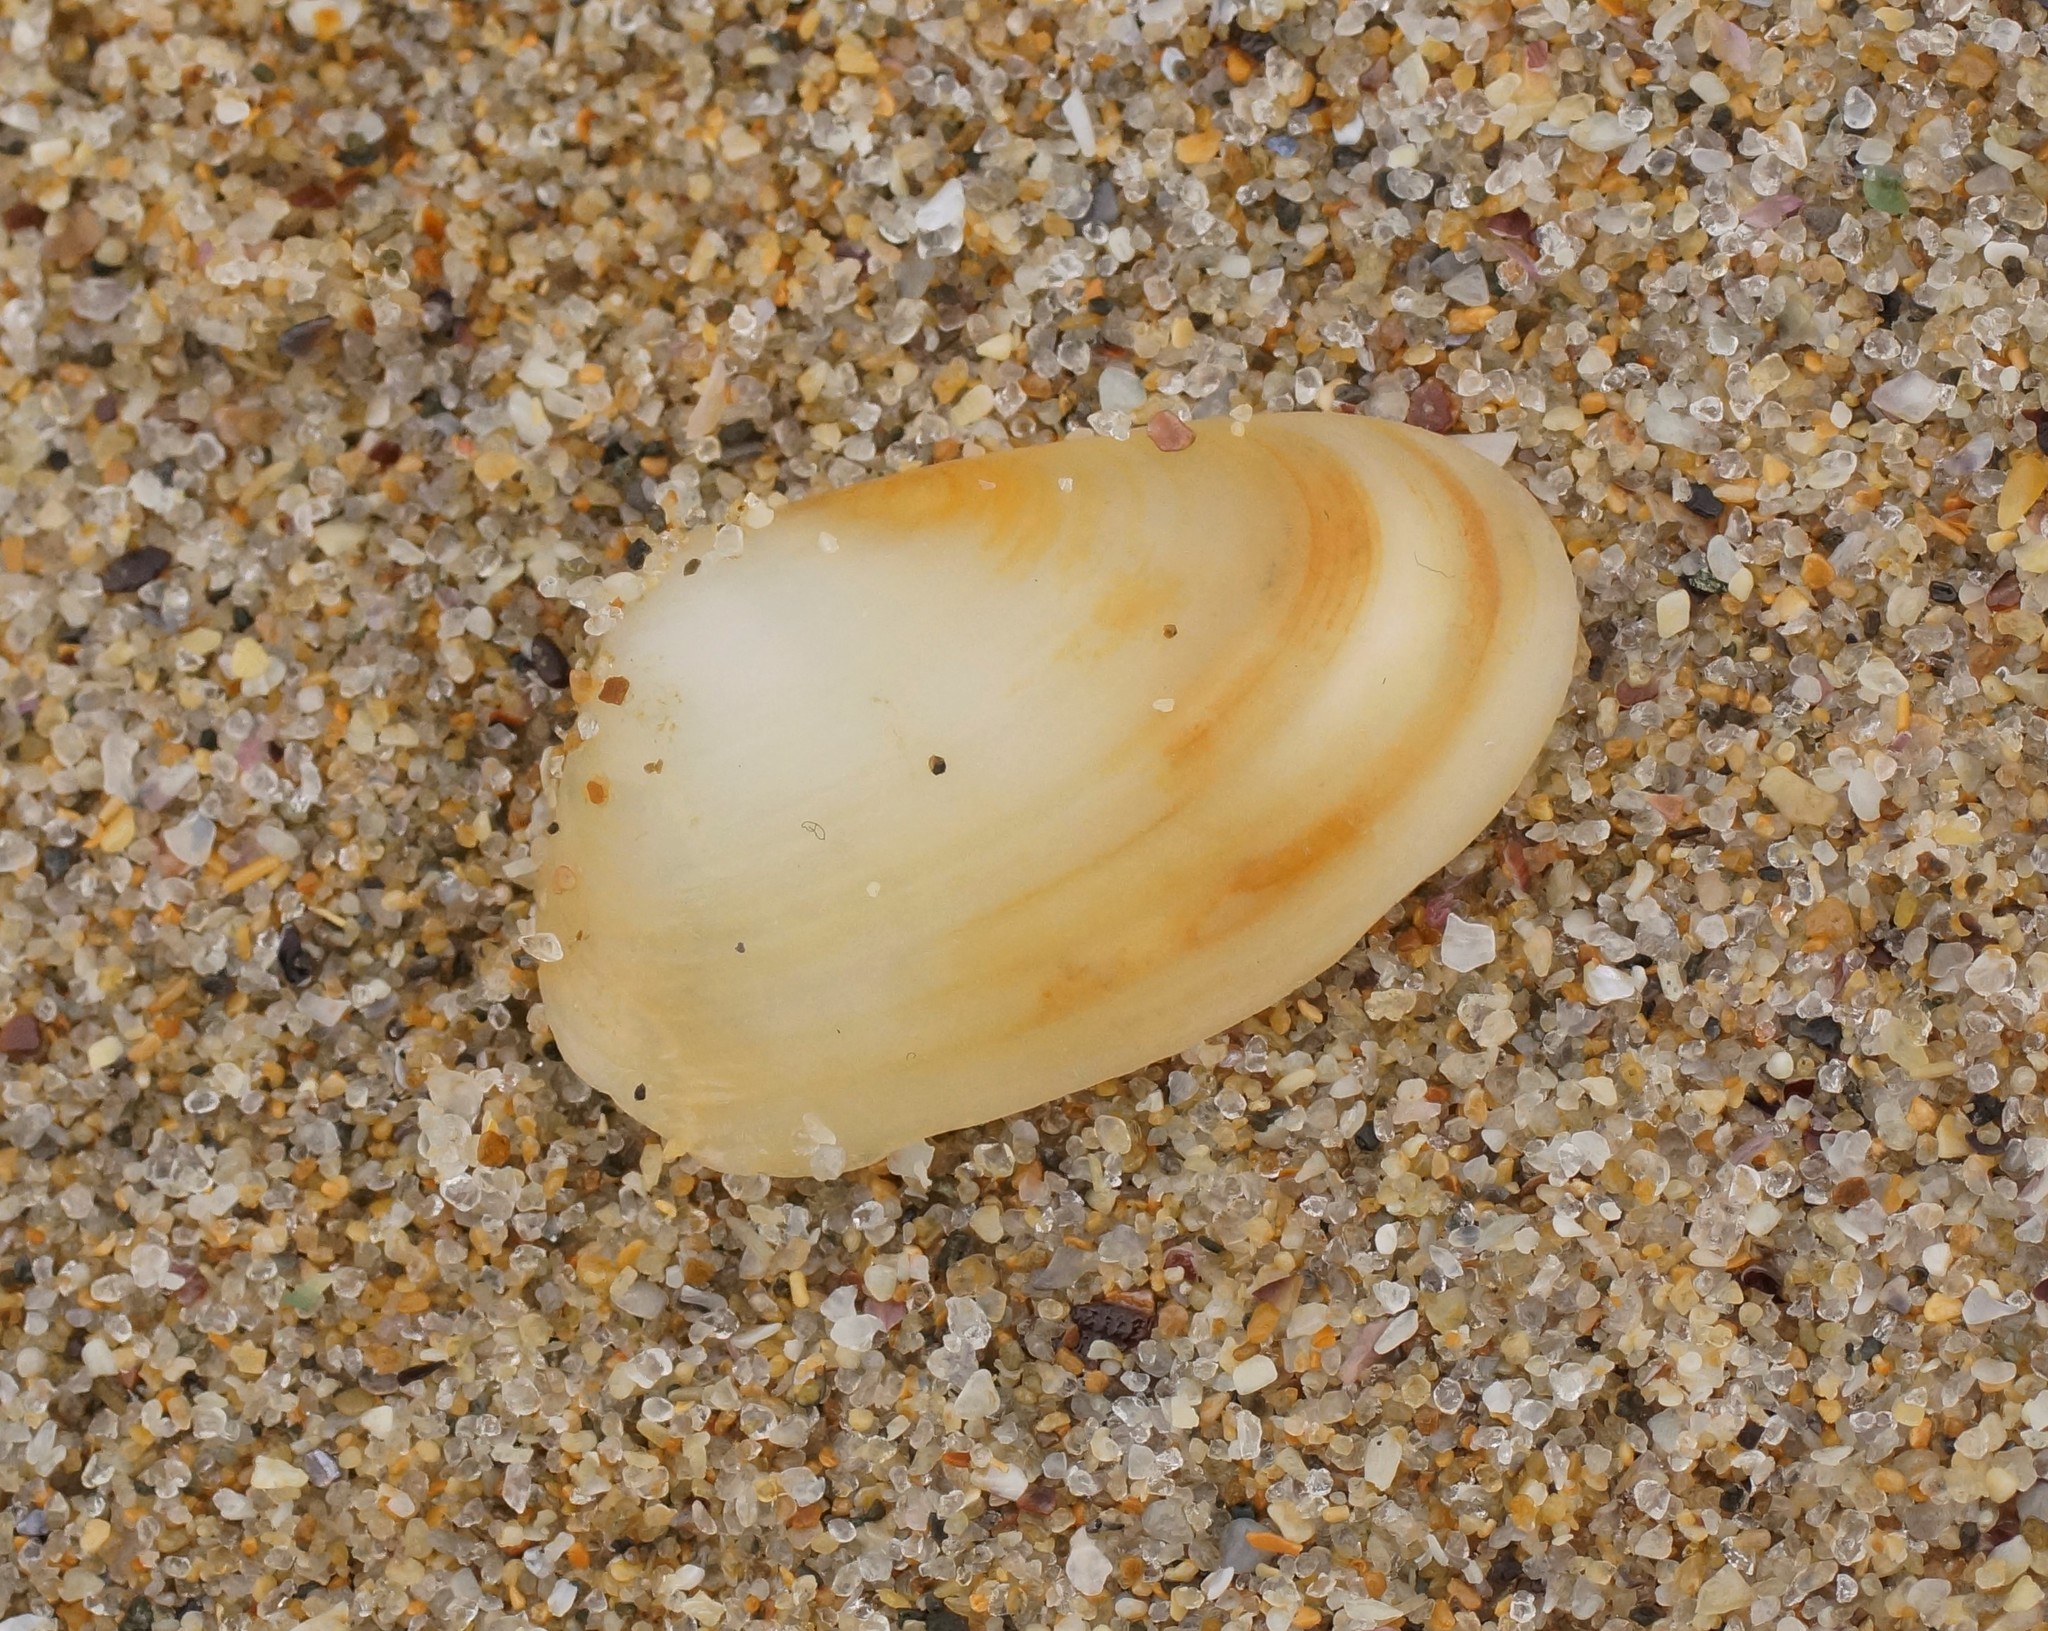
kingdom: Animalia
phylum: Mollusca
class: Bivalvia
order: Venerida
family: Mesodesmatidae
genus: Paphies
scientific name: Paphies angusta
